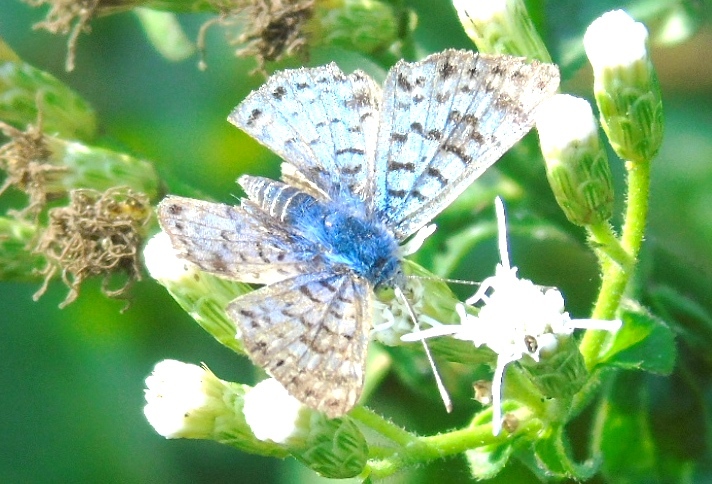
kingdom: Animalia
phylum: Arthropoda
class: Insecta
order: Lepidoptera
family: Riodinidae
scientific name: Riodinidae
